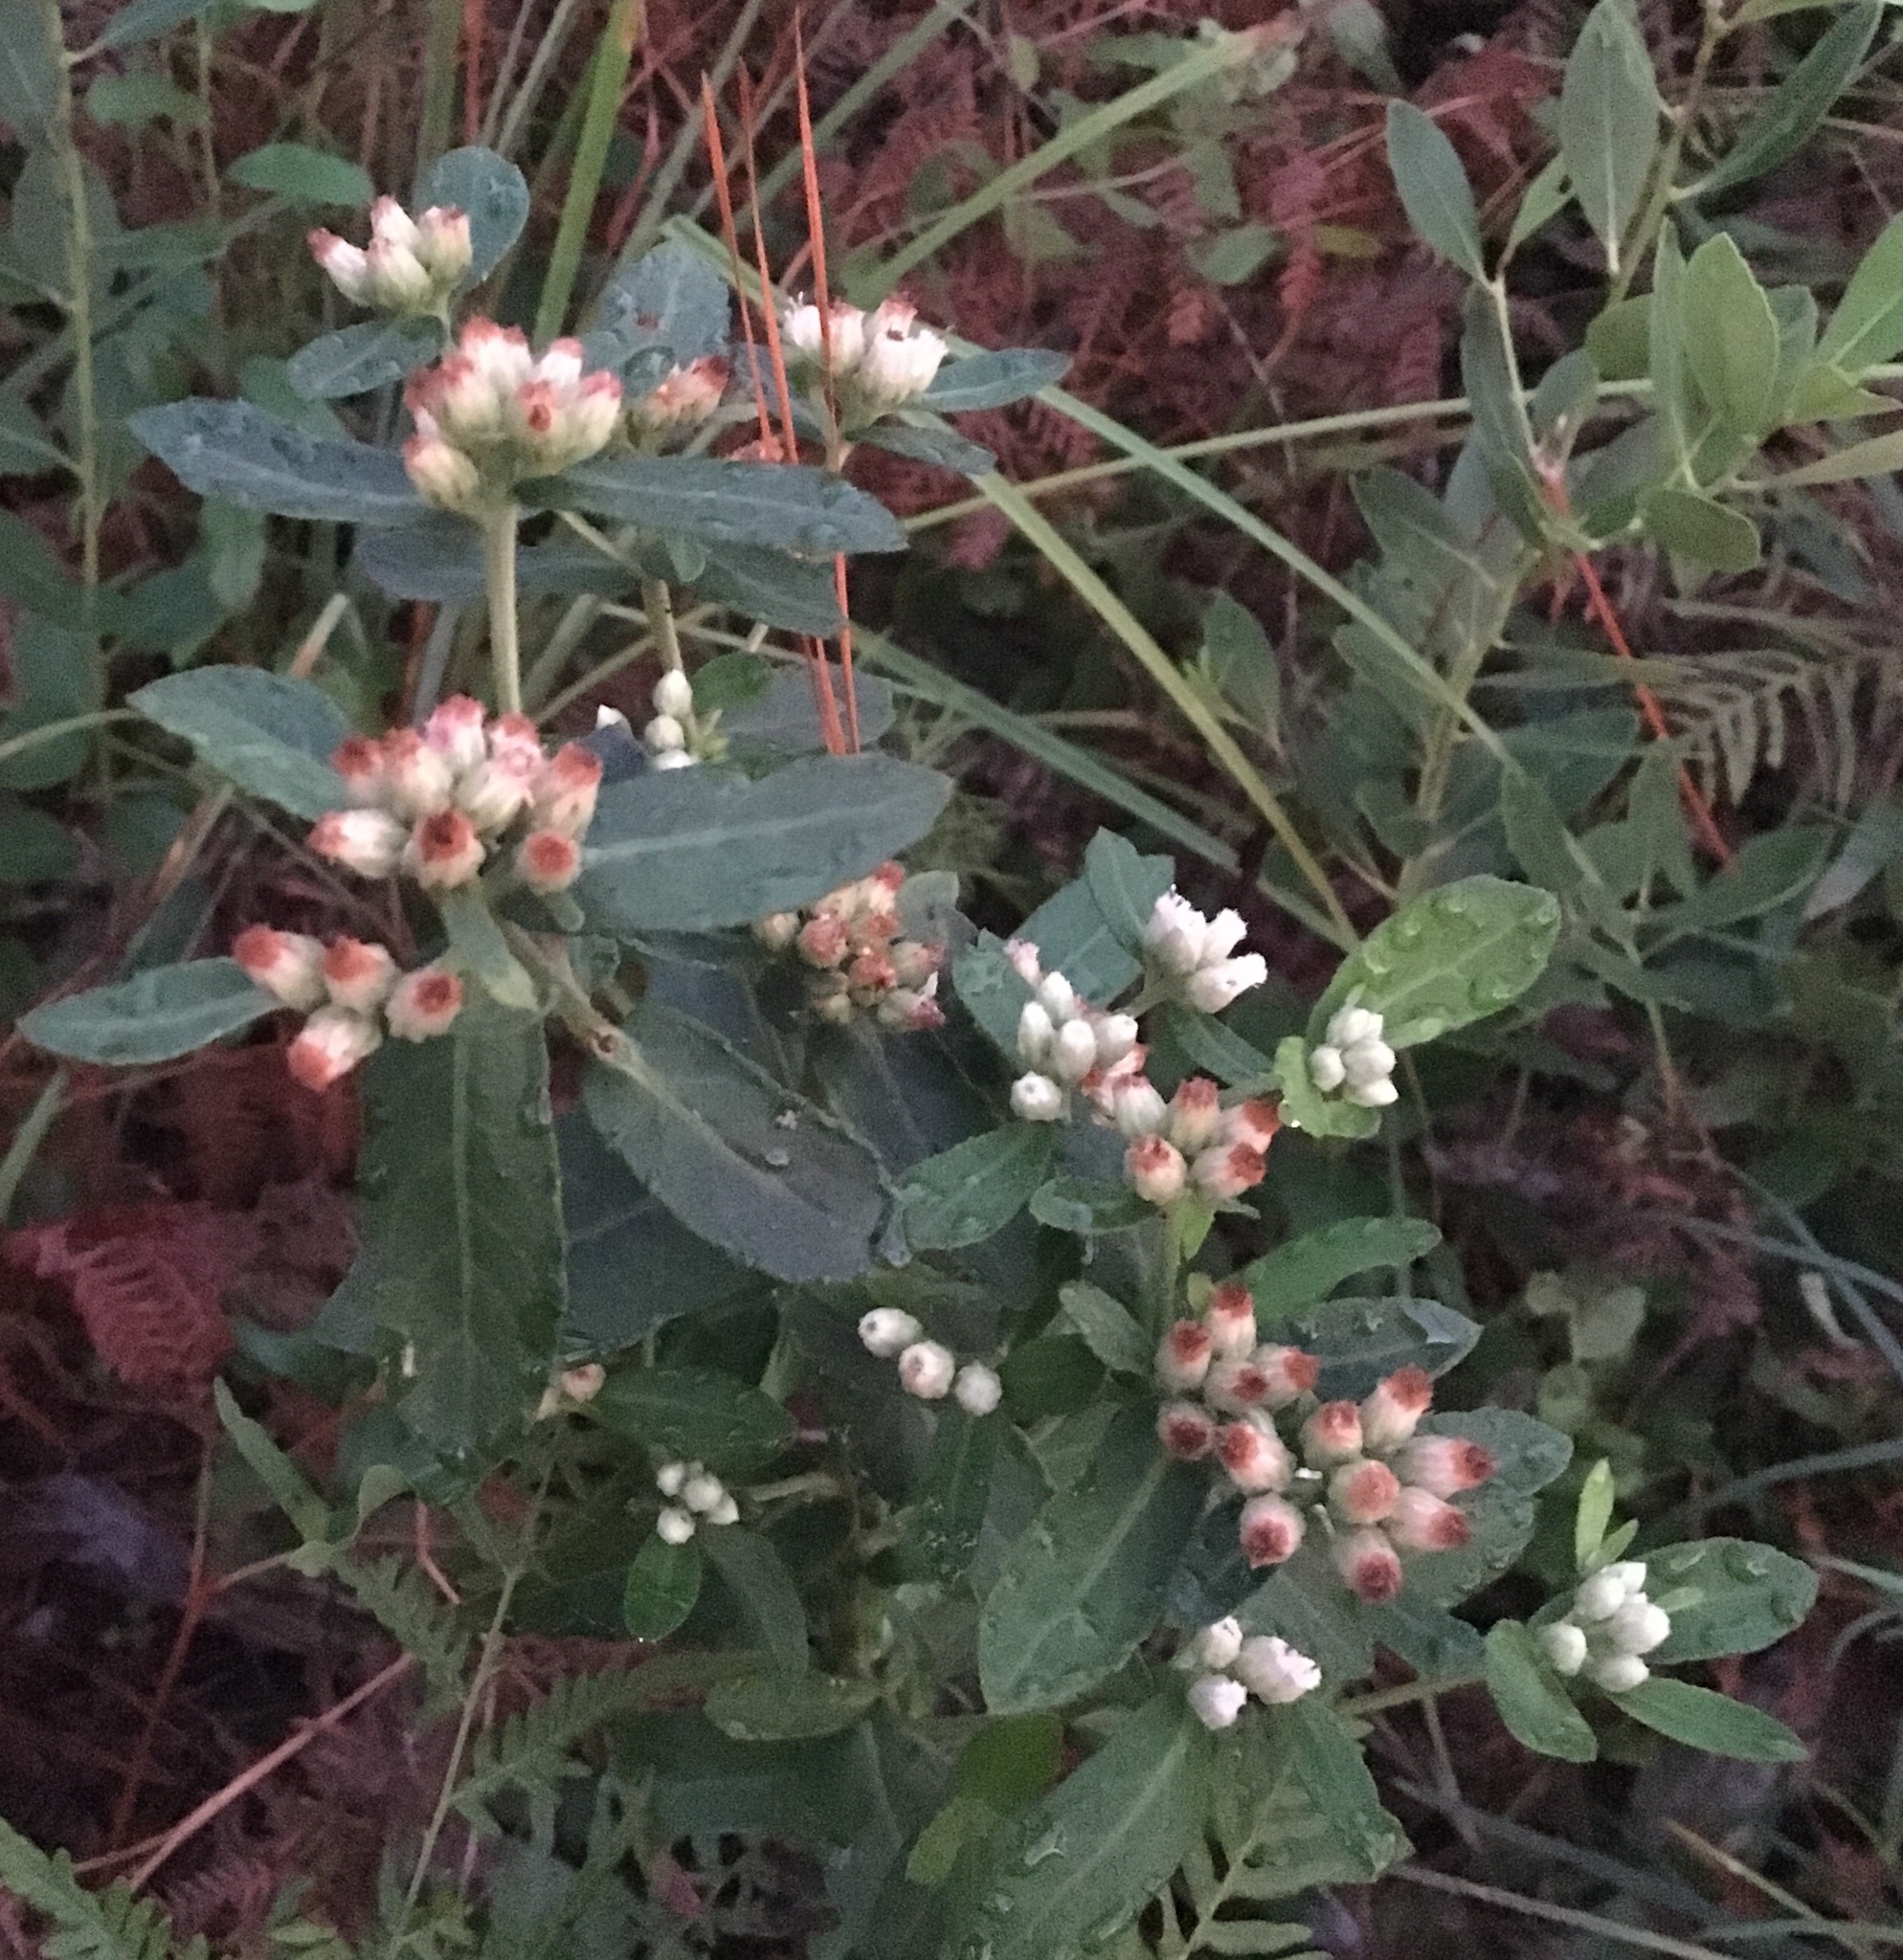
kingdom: Plantae
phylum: Tracheophyta
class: Magnoliopsida
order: Asterales
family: Asteraceae
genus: Pluchea
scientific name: Pluchea foetida
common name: Stinking camphorweed
